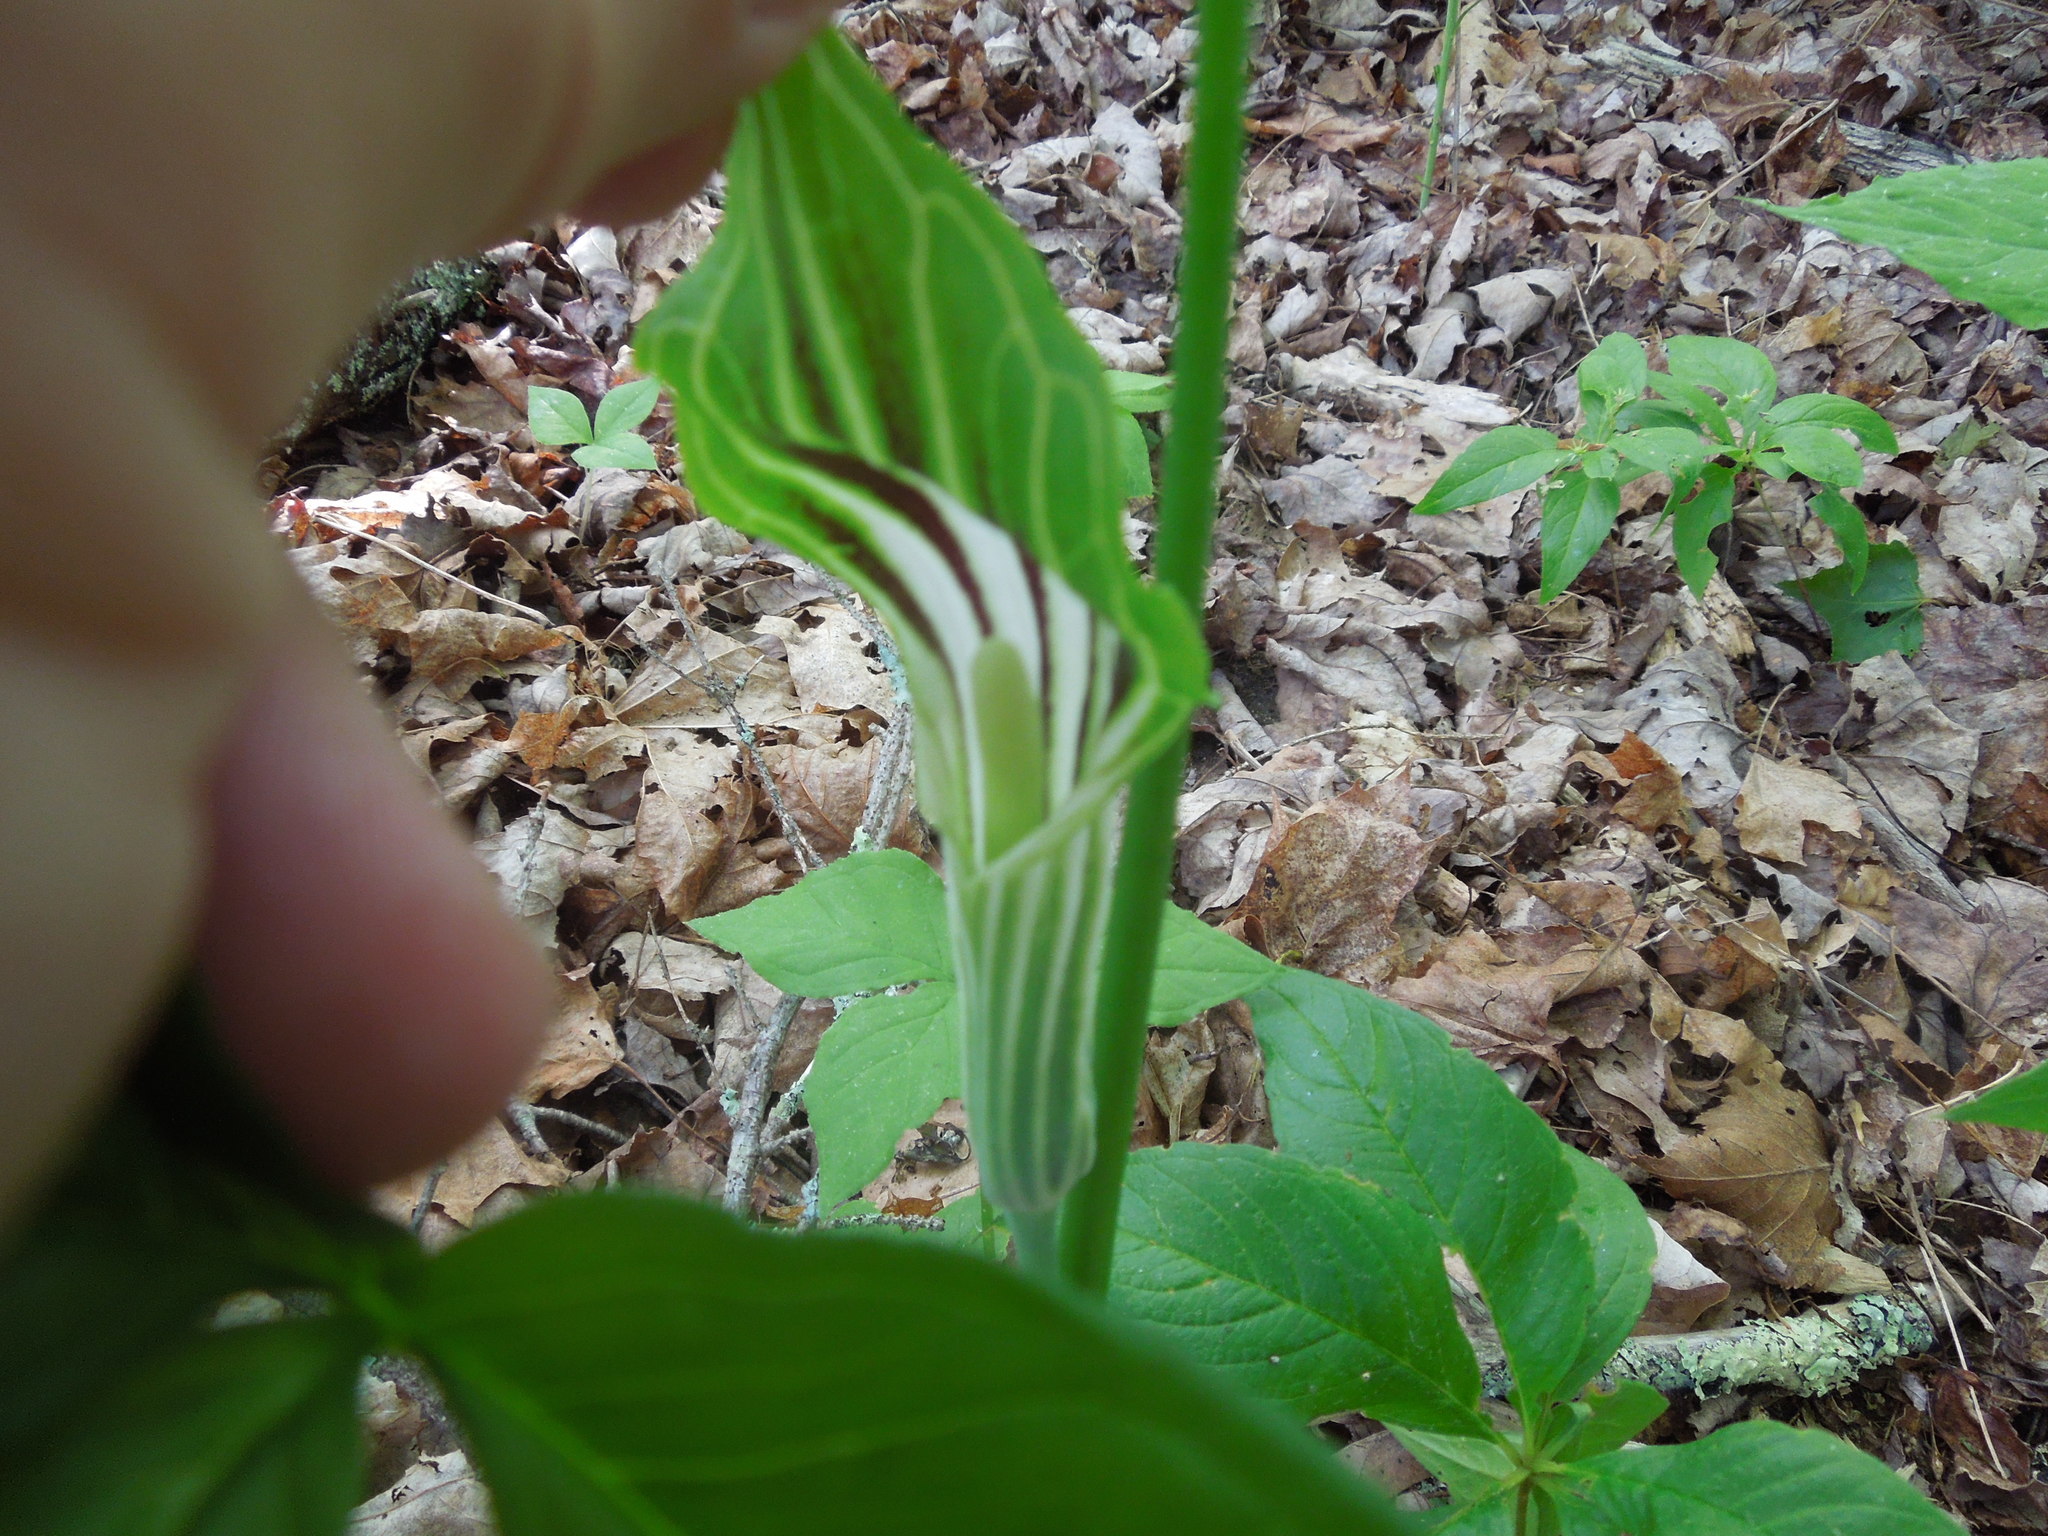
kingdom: Plantae
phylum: Tracheophyta
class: Liliopsida
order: Alismatales
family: Araceae
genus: Arisaema
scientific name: Arisaema stewardsonii
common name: Swamp jack-in-the-pulpit
